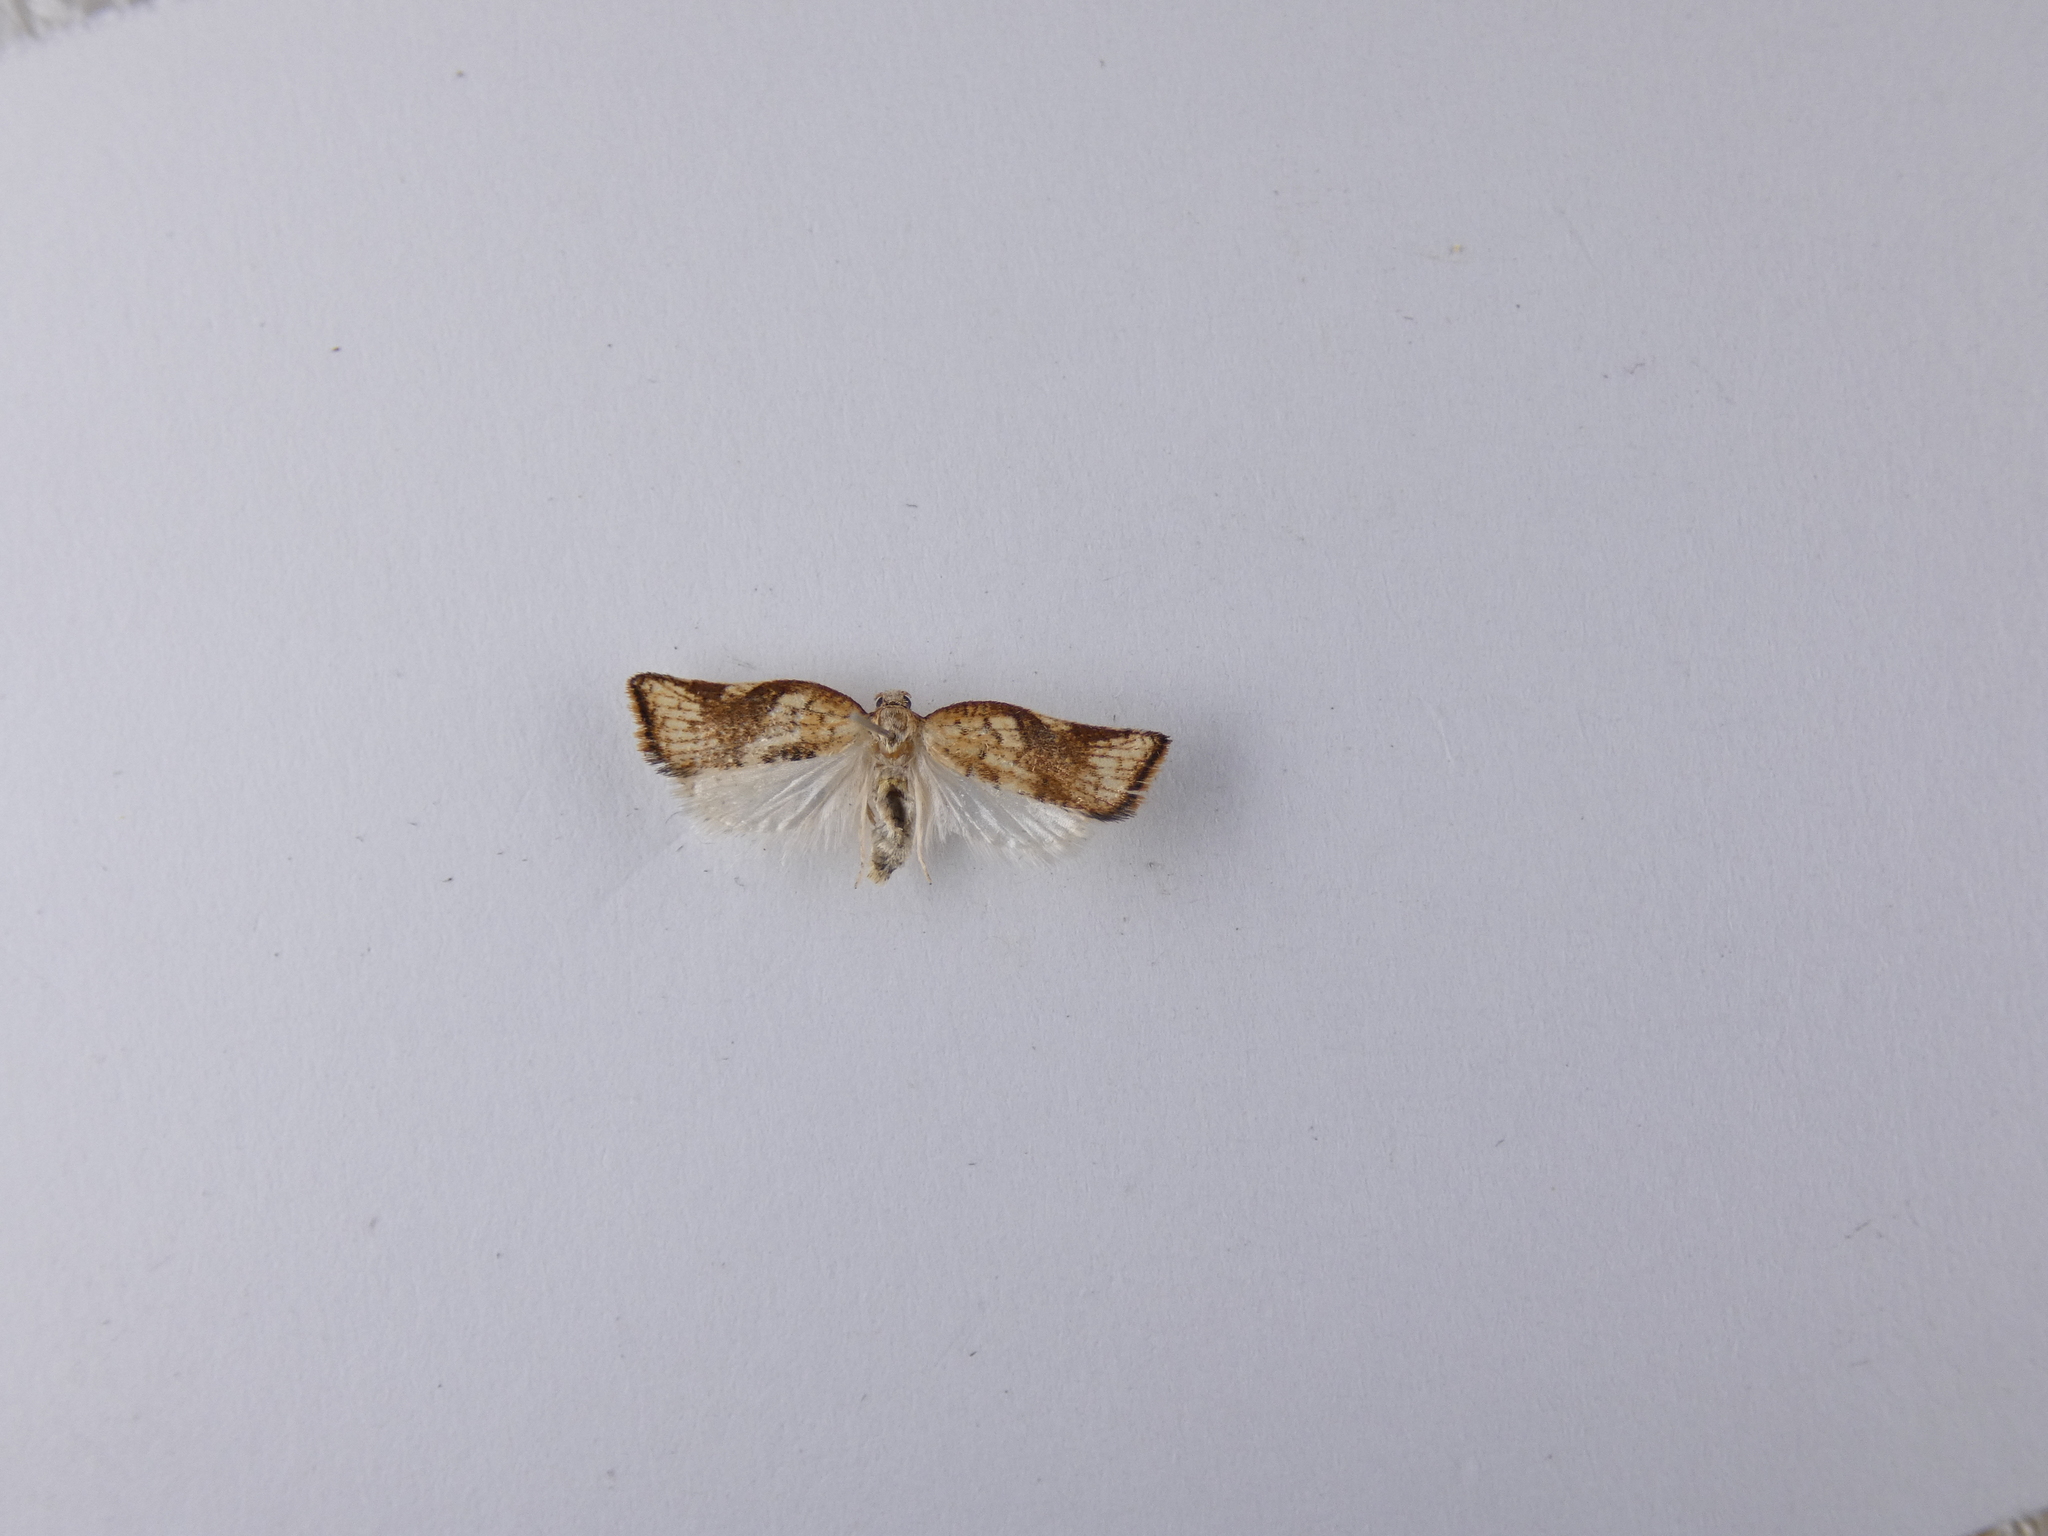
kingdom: Animalia
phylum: Arthropoda
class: Insecta
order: Lepidoptera
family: Tortricidae
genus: Catamacta
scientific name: Catamacta gavisana
